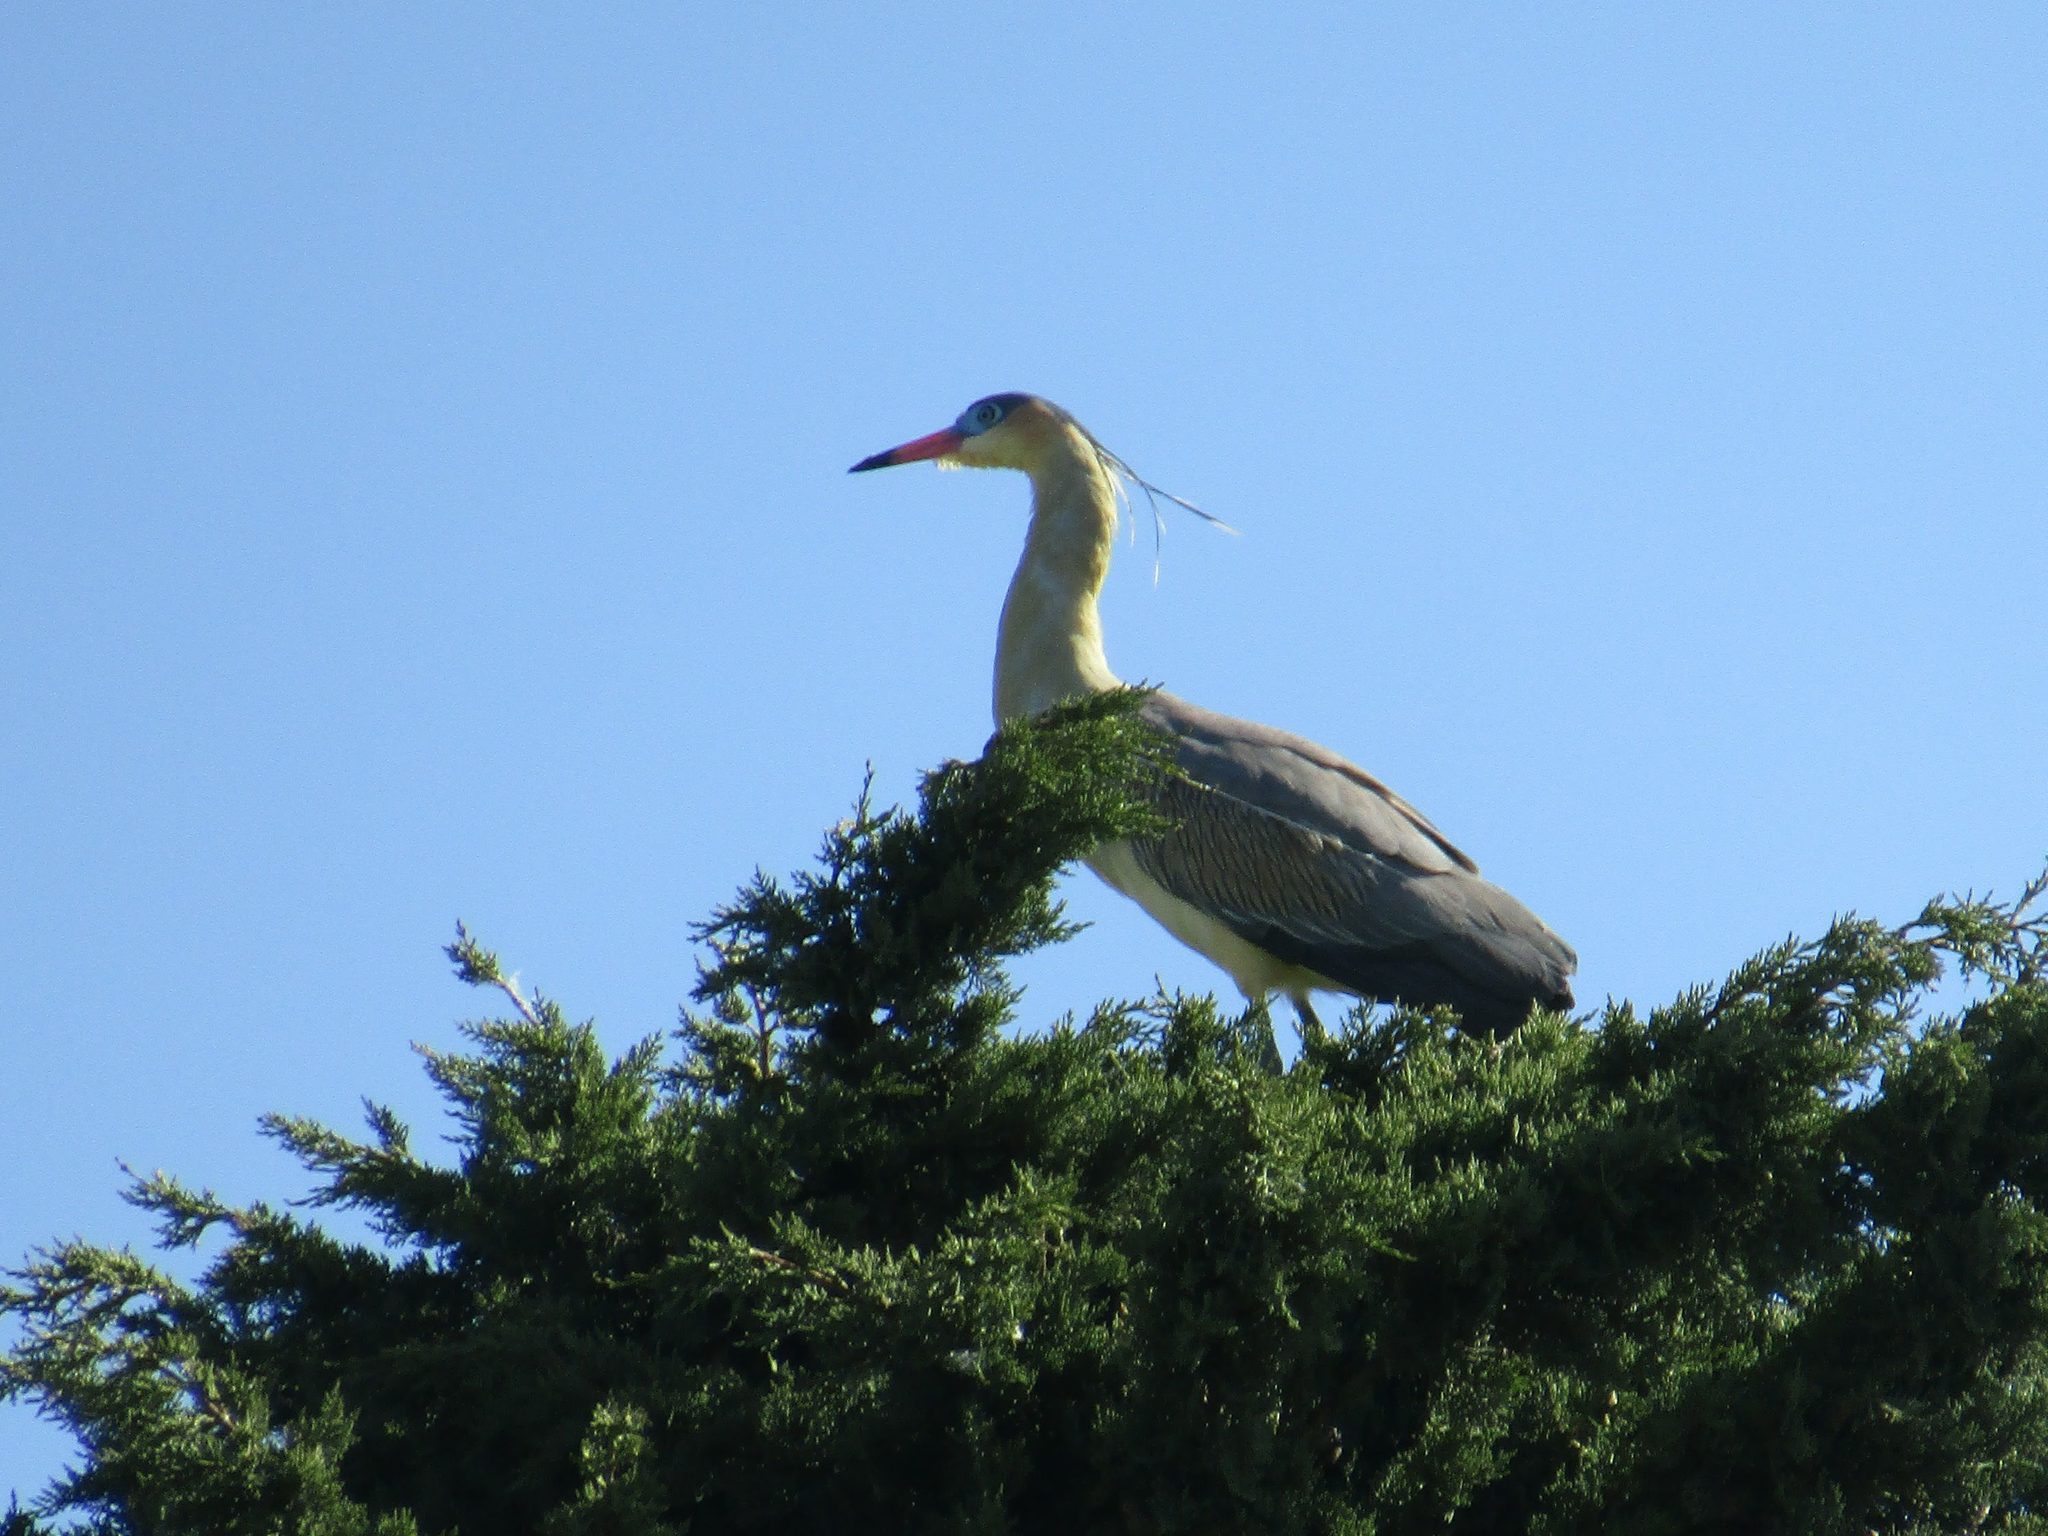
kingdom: Animalia
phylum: Chordata
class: Aves
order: Pelecaniformes
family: Ardeidae
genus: Syrigma
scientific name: Syrigma sibilatrix
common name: Whistling heron
